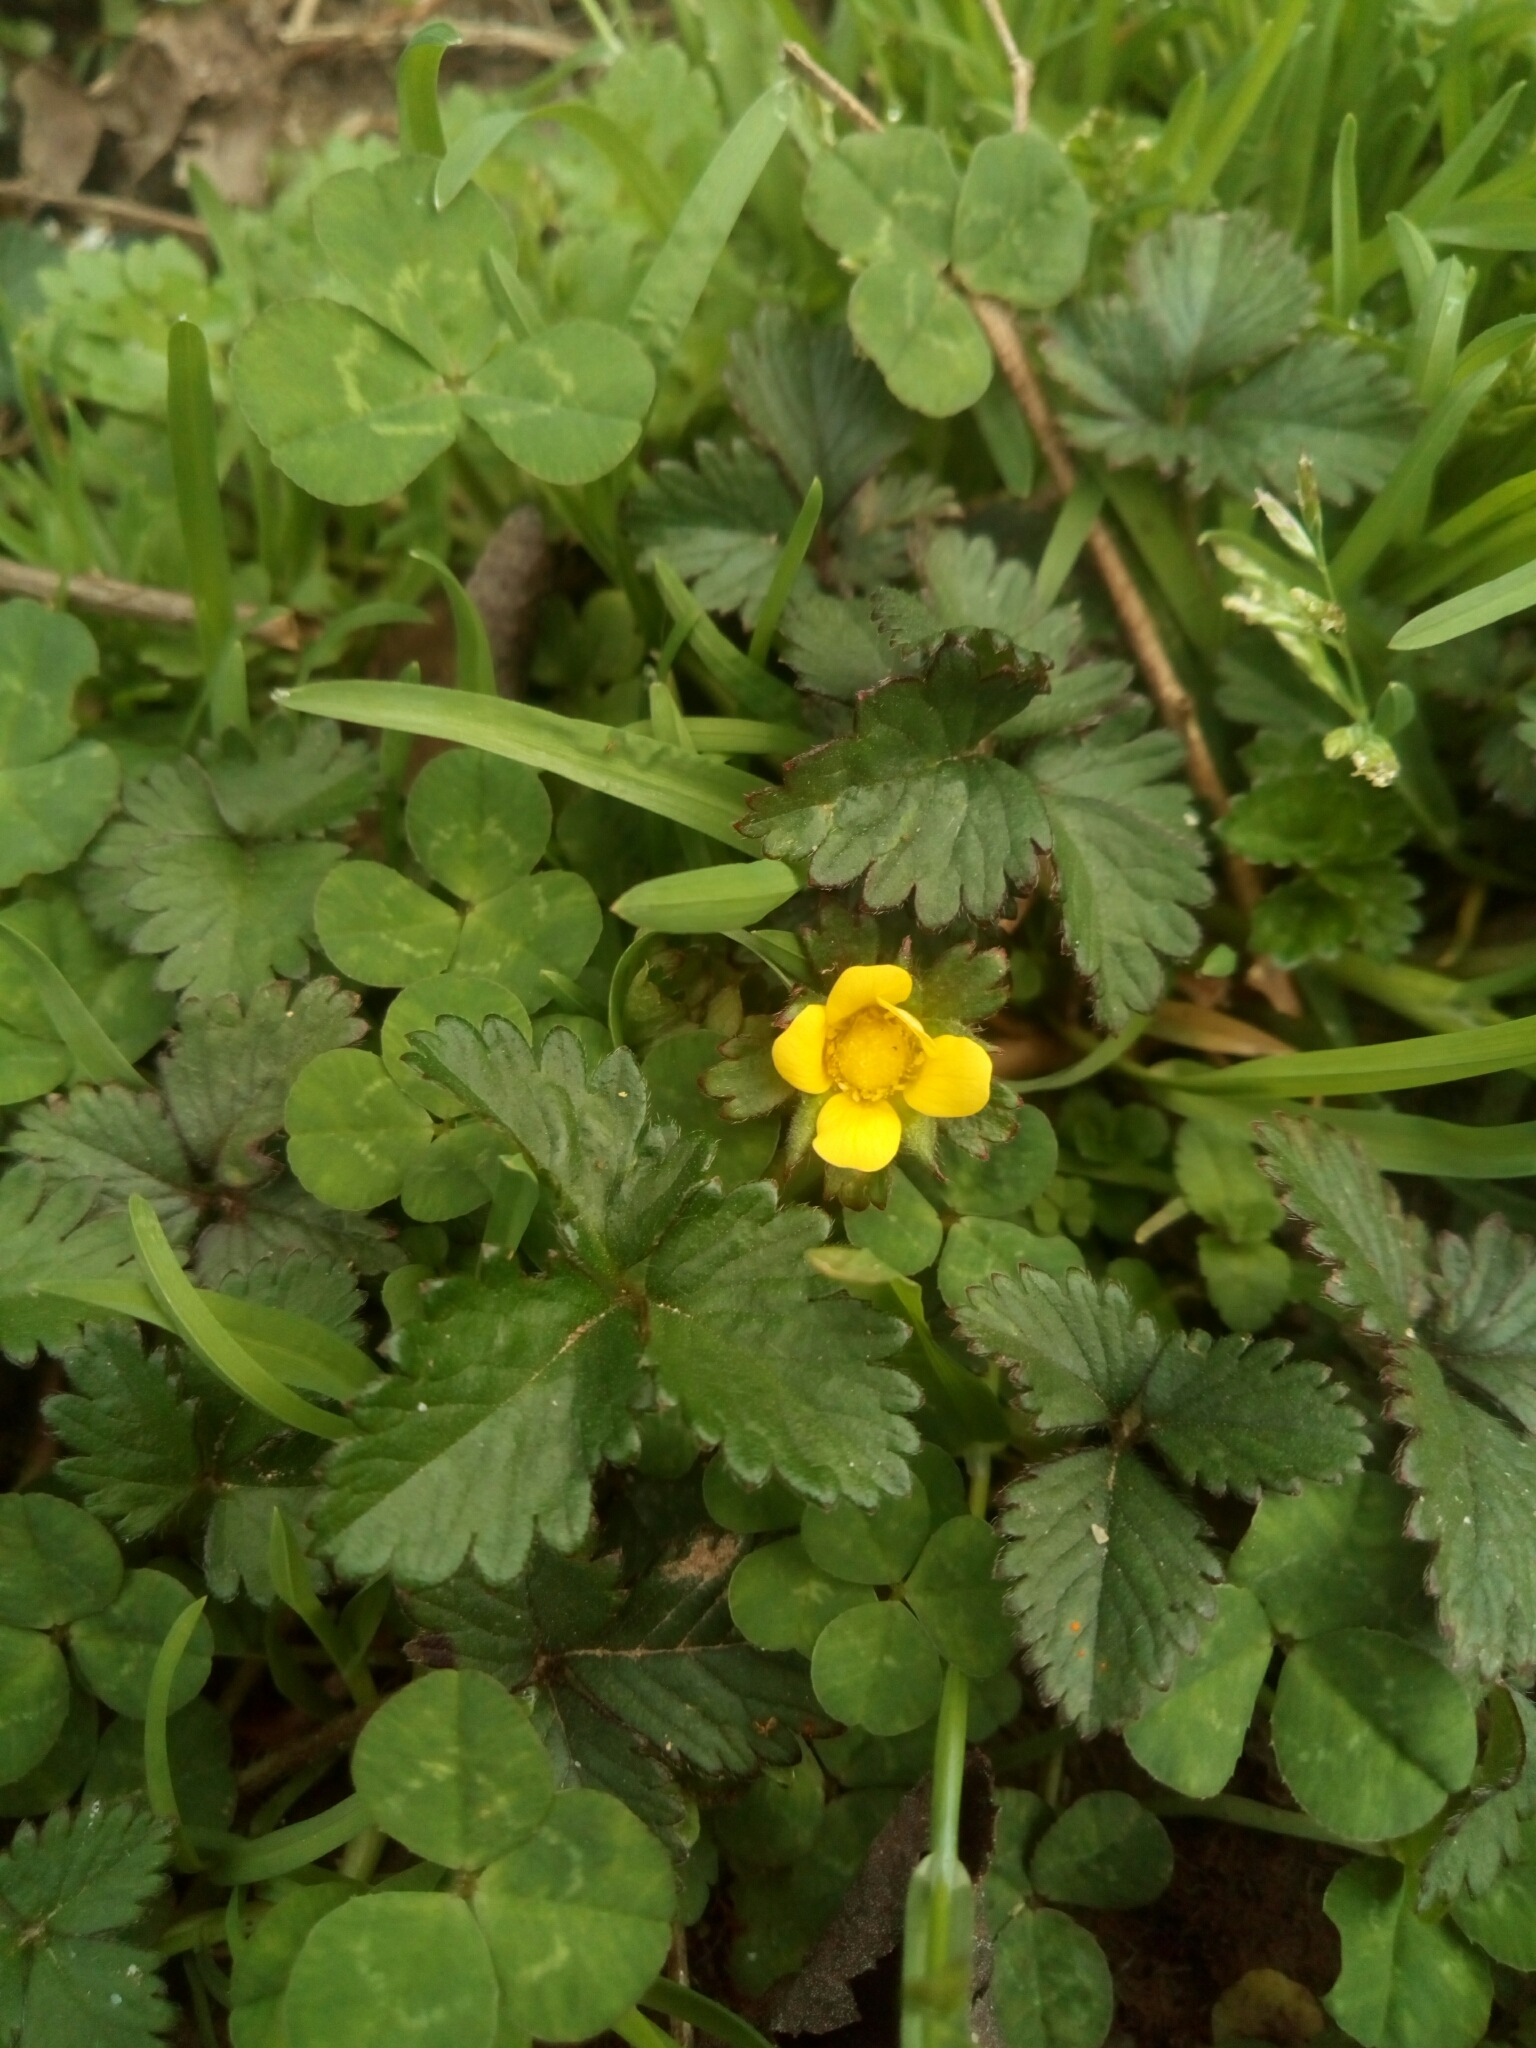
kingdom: Plantae
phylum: Tracheophyta
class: Magnoliopsida
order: Rosales
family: Rosaceae
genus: Potentilla
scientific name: Potentilla indica
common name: Yellow-flowered strawberry
